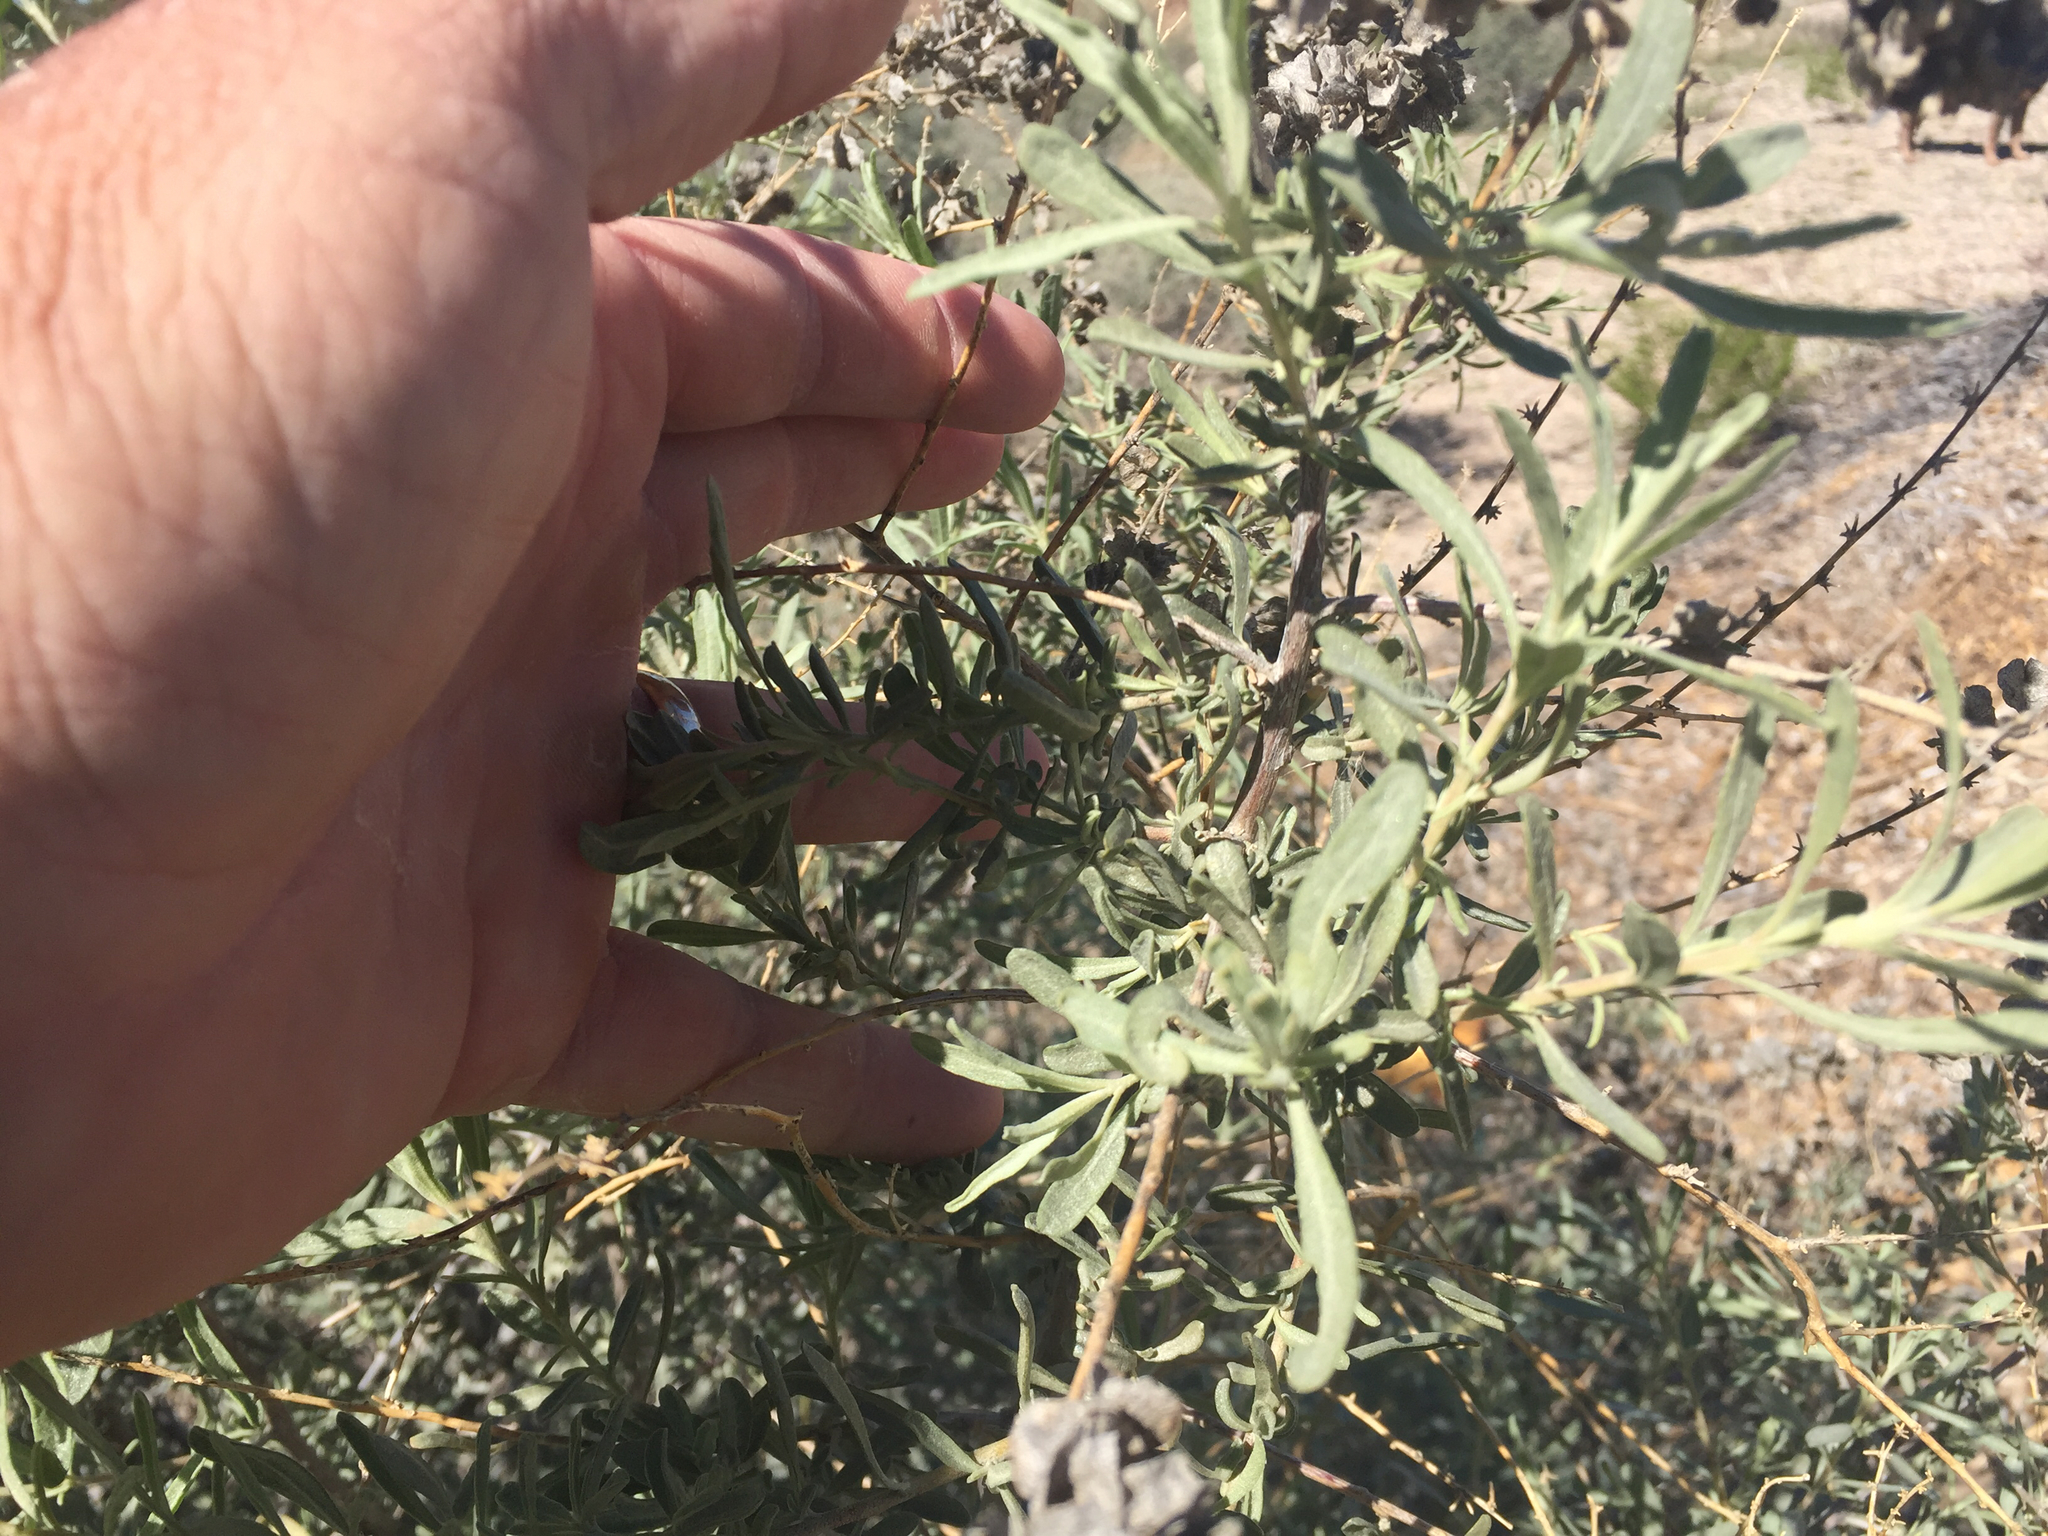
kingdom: Plantae
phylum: Tracheophyta
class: Magnoliopsida
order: Caryophyllales
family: Amaranthaceae
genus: Atriplex
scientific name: Atriplex canescens
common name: Four-wing saltbush
